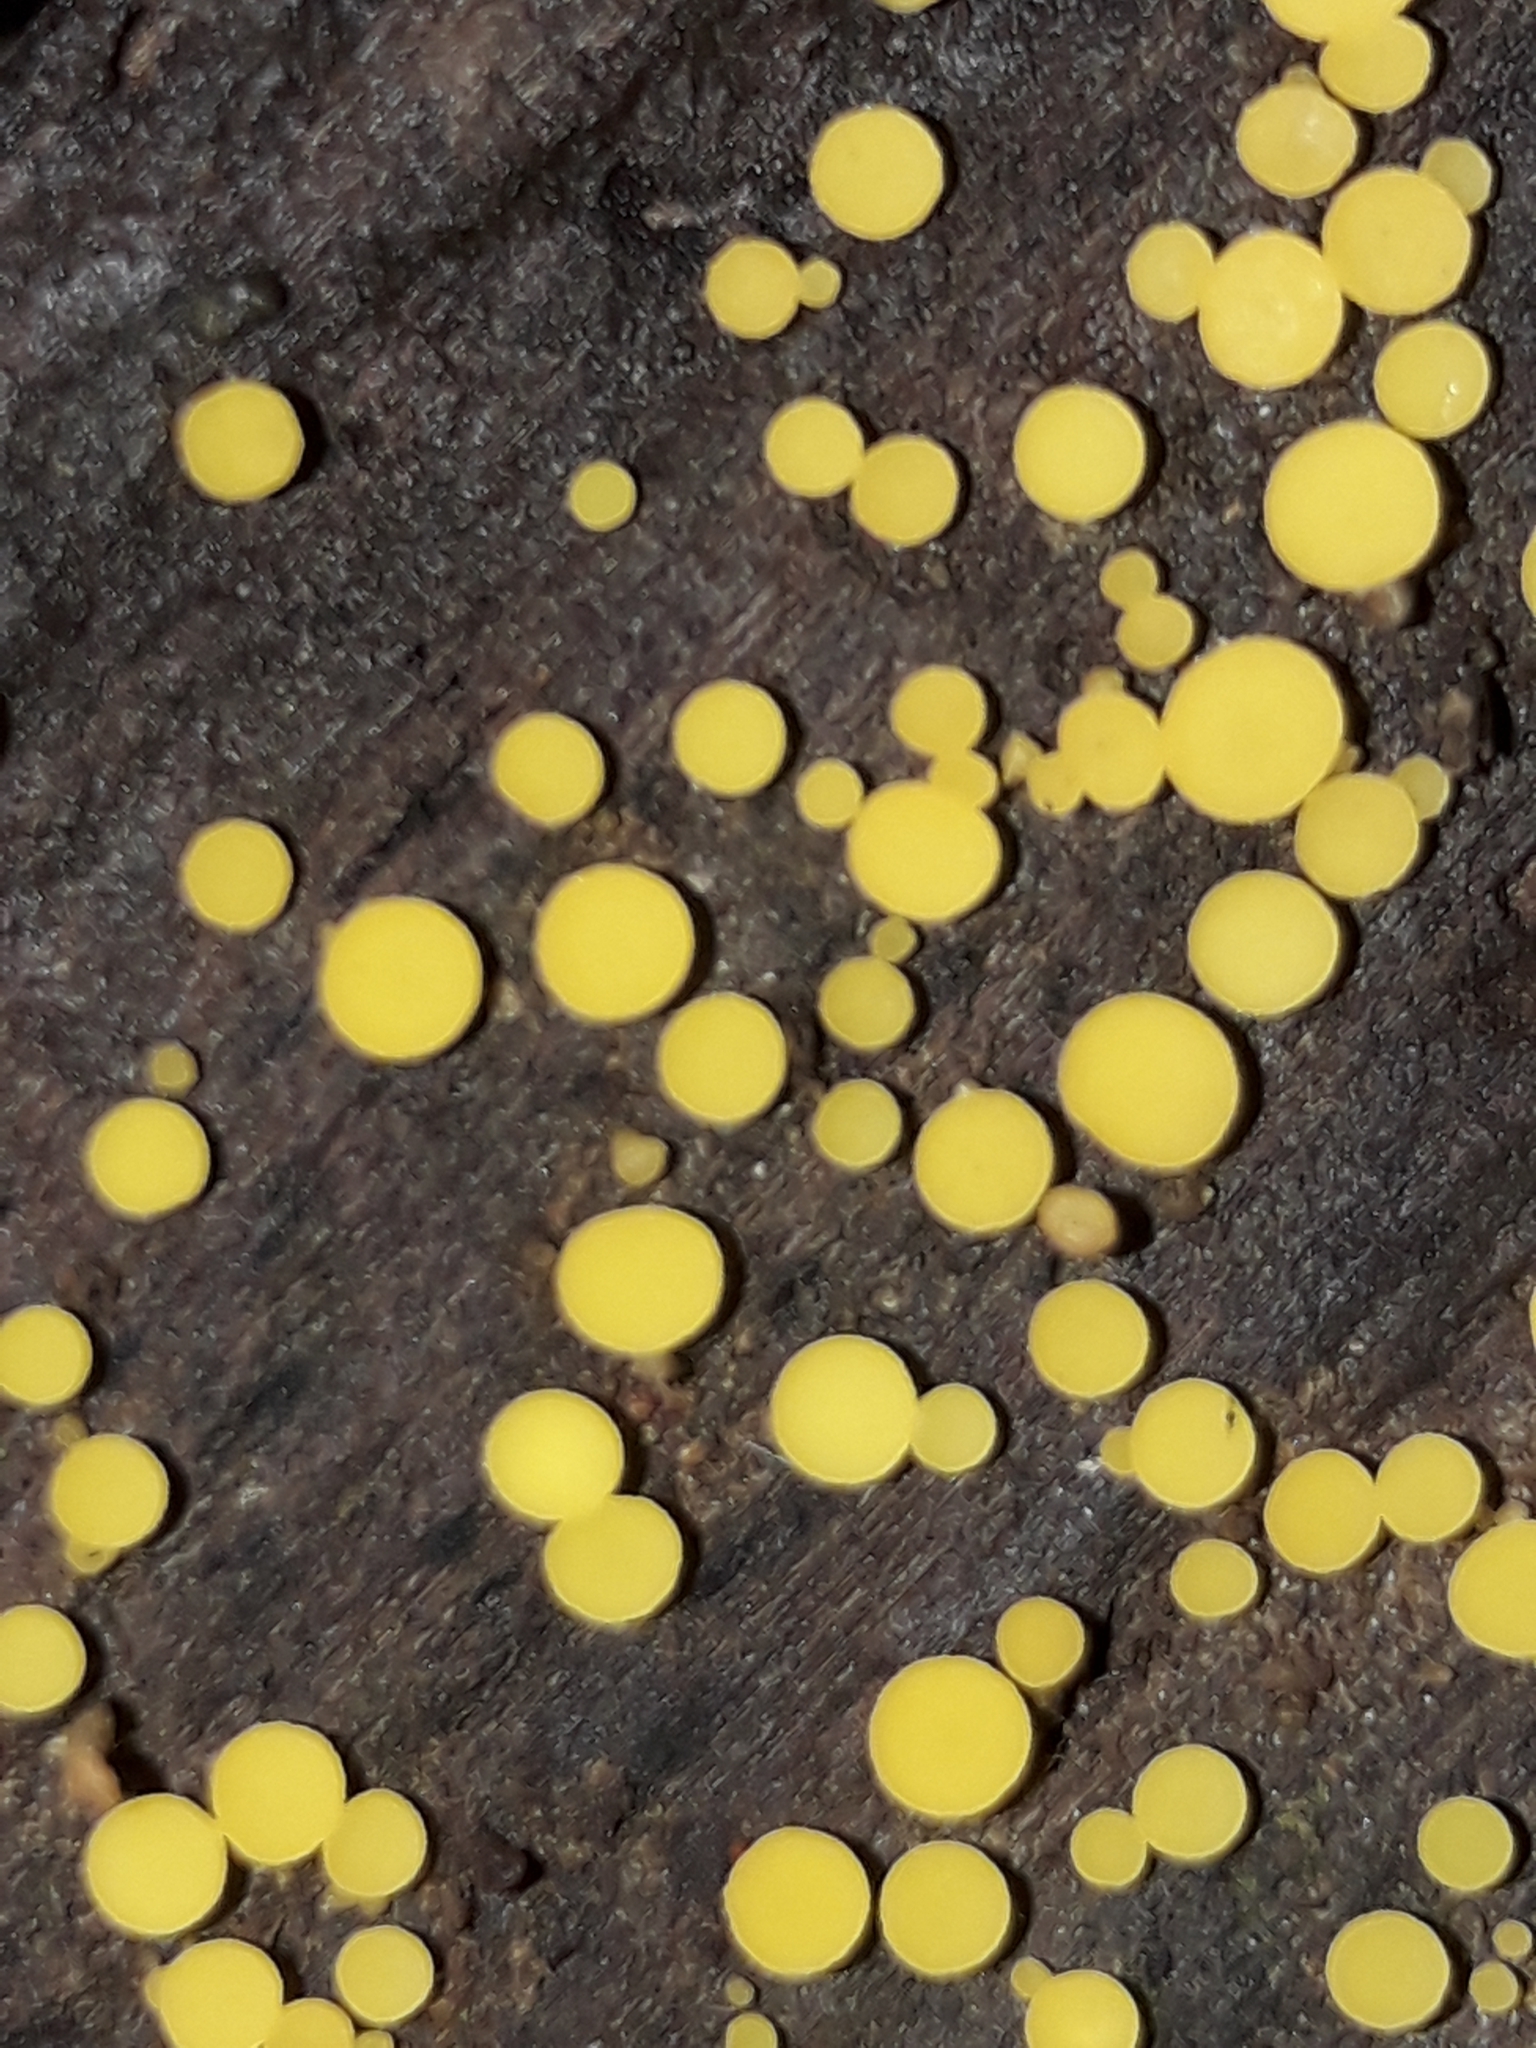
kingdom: Fungi
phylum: Ascomycota
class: Leotiomycetes
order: Helotiales
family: Pezizellaceae
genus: Calycina
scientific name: Calycina citrina
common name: Yellow fairy cups
